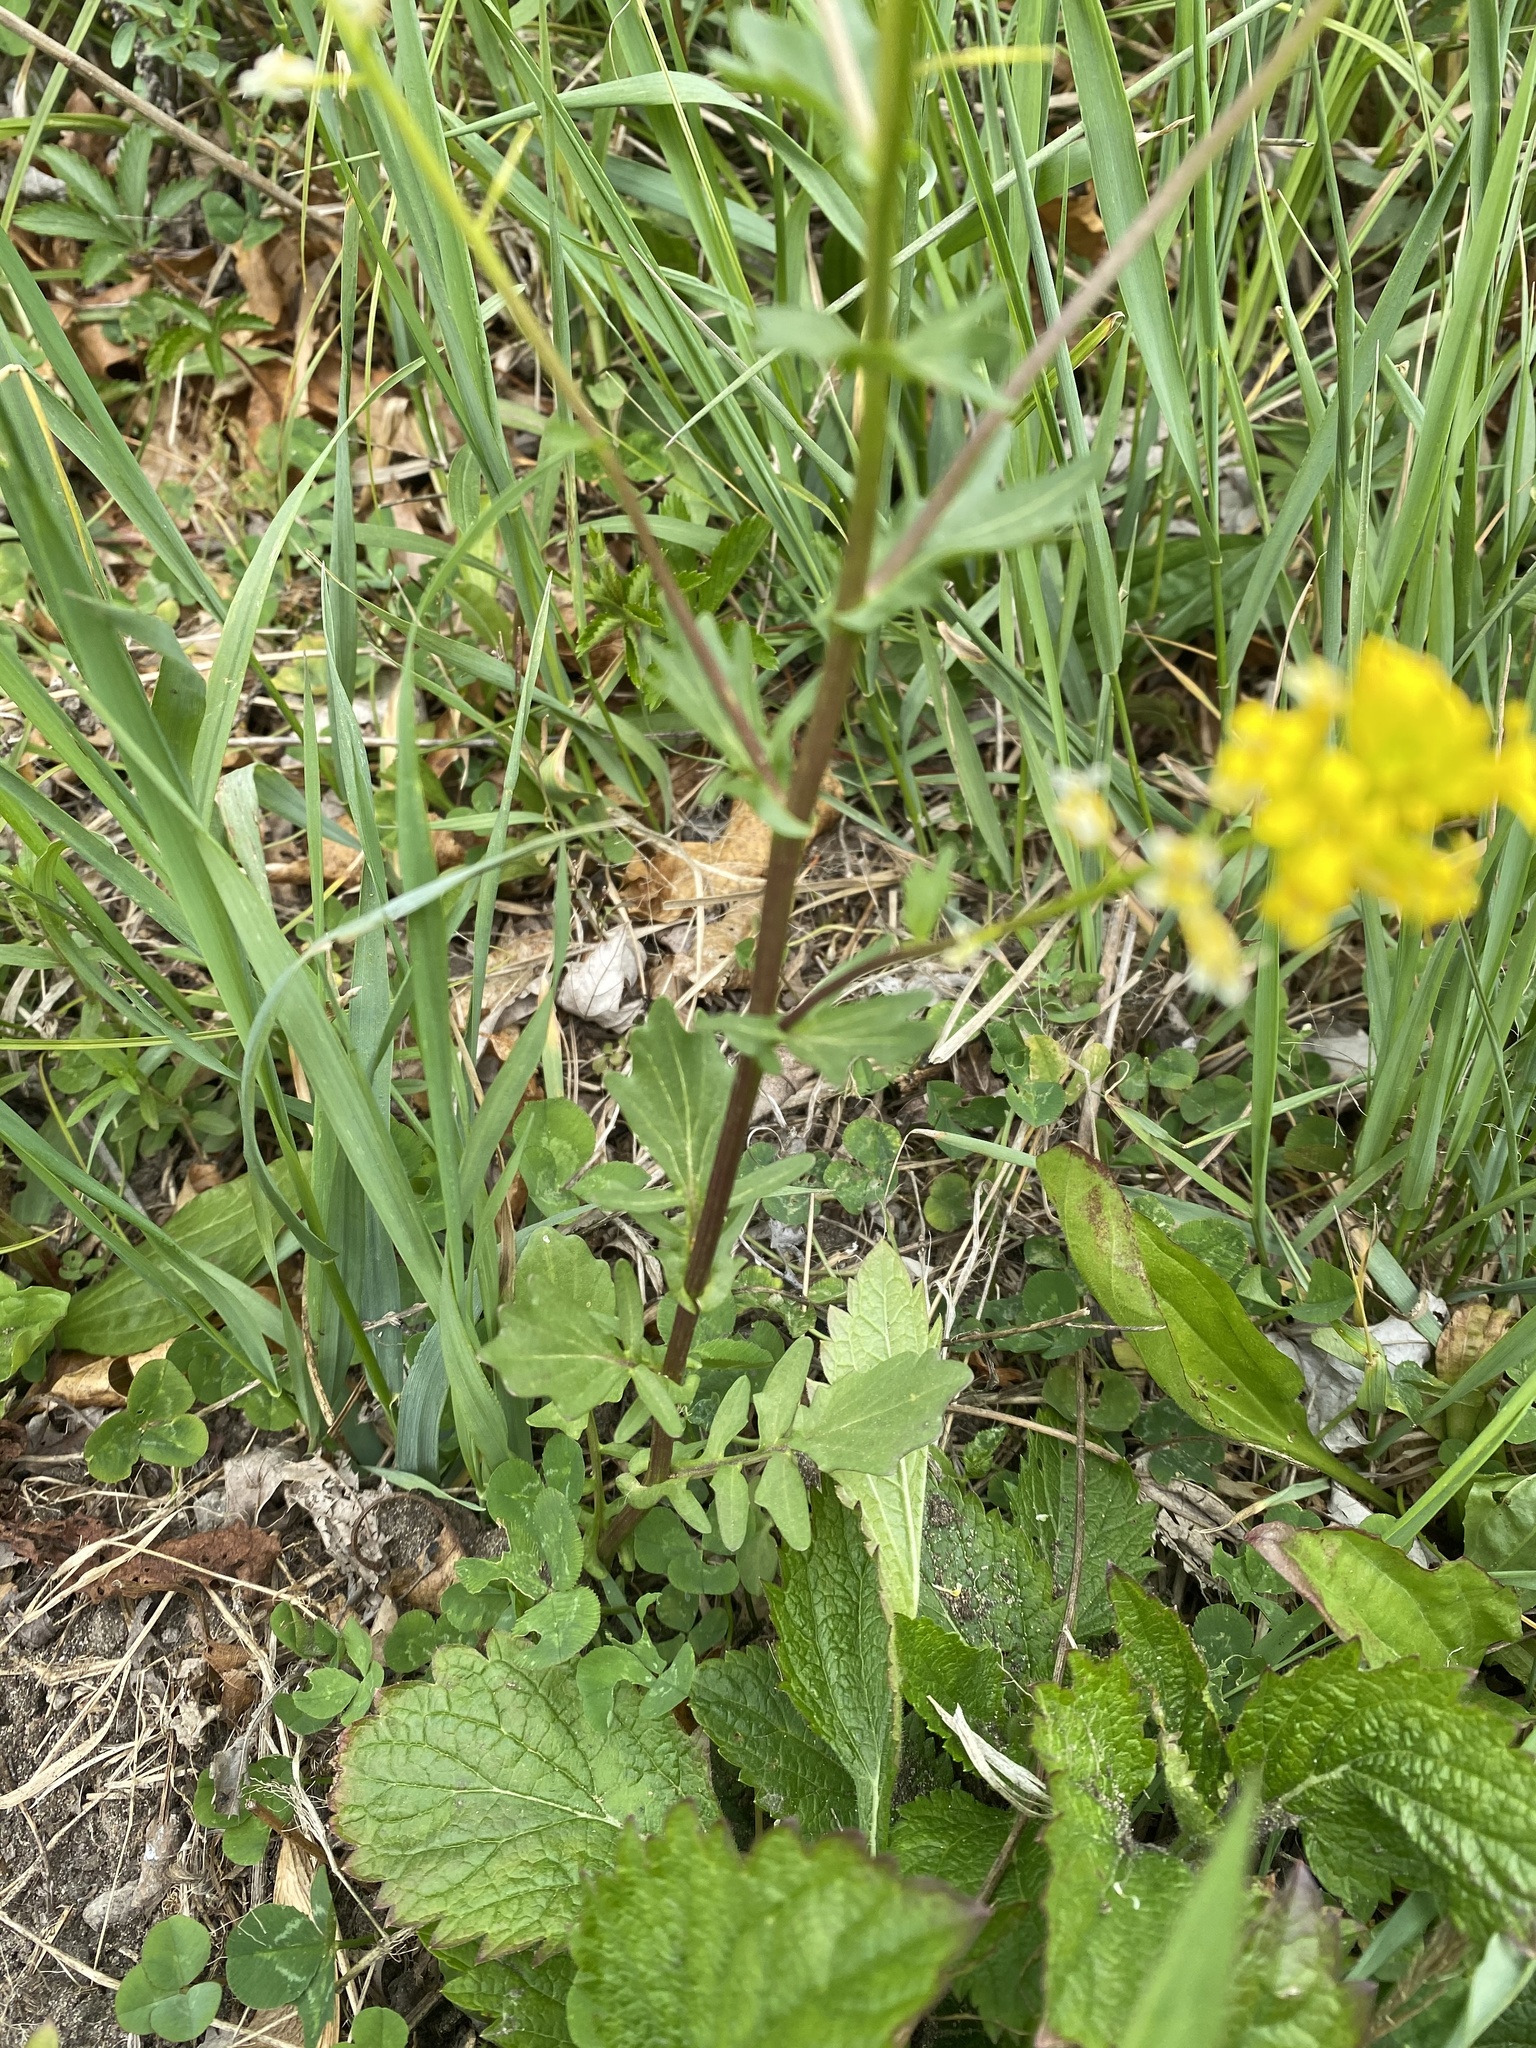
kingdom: Plantae
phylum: Tracheophyta
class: Magnoliopsida
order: Brassicales
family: Brassicaceae
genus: Barbarea
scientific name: Barbarea vulgaris
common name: Cressy-greens
